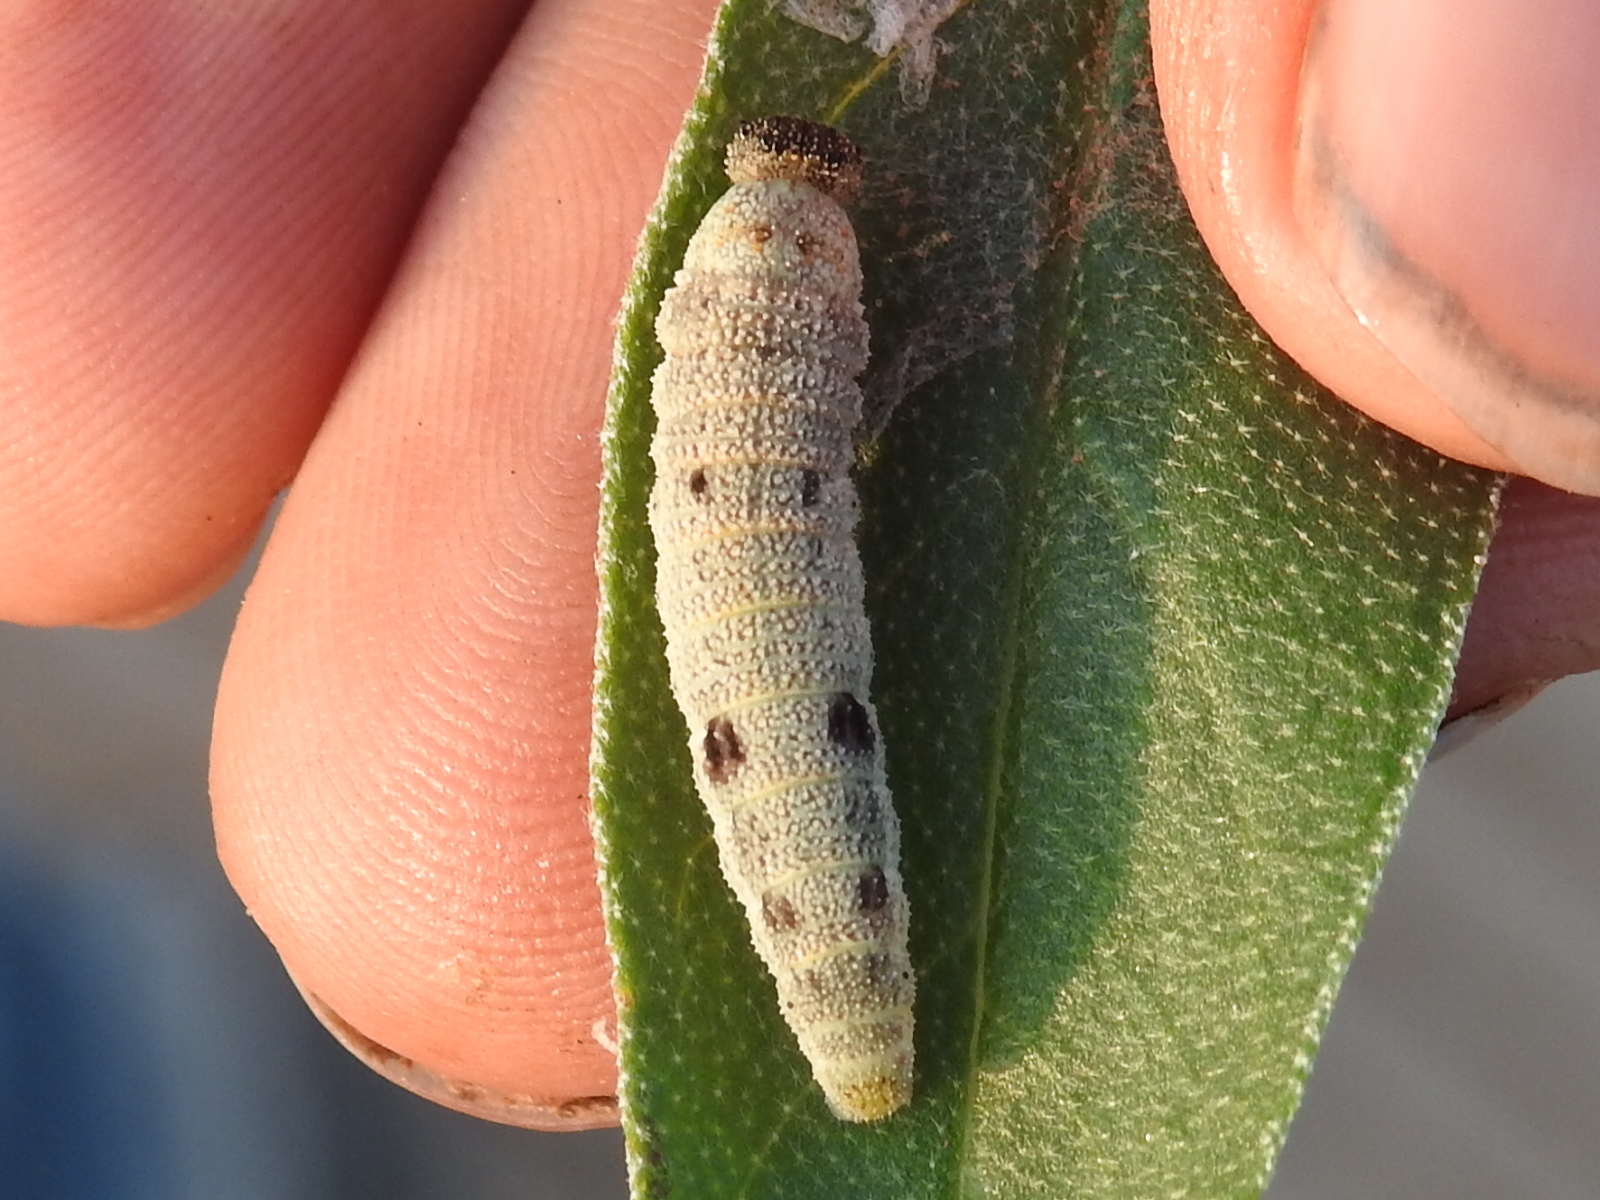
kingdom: Animalia
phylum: Arthropoda
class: Insecta
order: Lepidoptera
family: Nymphalidae
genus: Anaea
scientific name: Anaea andria
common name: Goatweed leafwing
